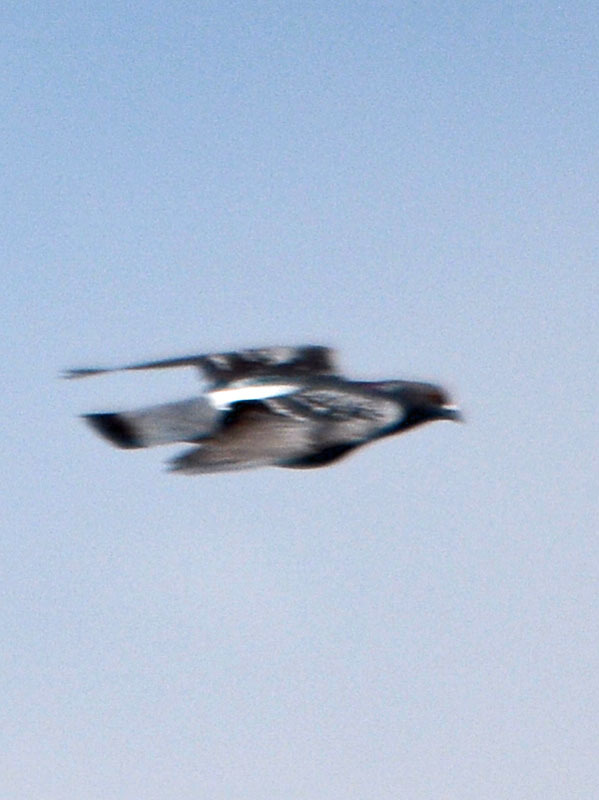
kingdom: Animalia
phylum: Chordata
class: Aves
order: Columbiformes
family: Columbidae
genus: Columba
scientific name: Columba livia
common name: Rock pigeon
